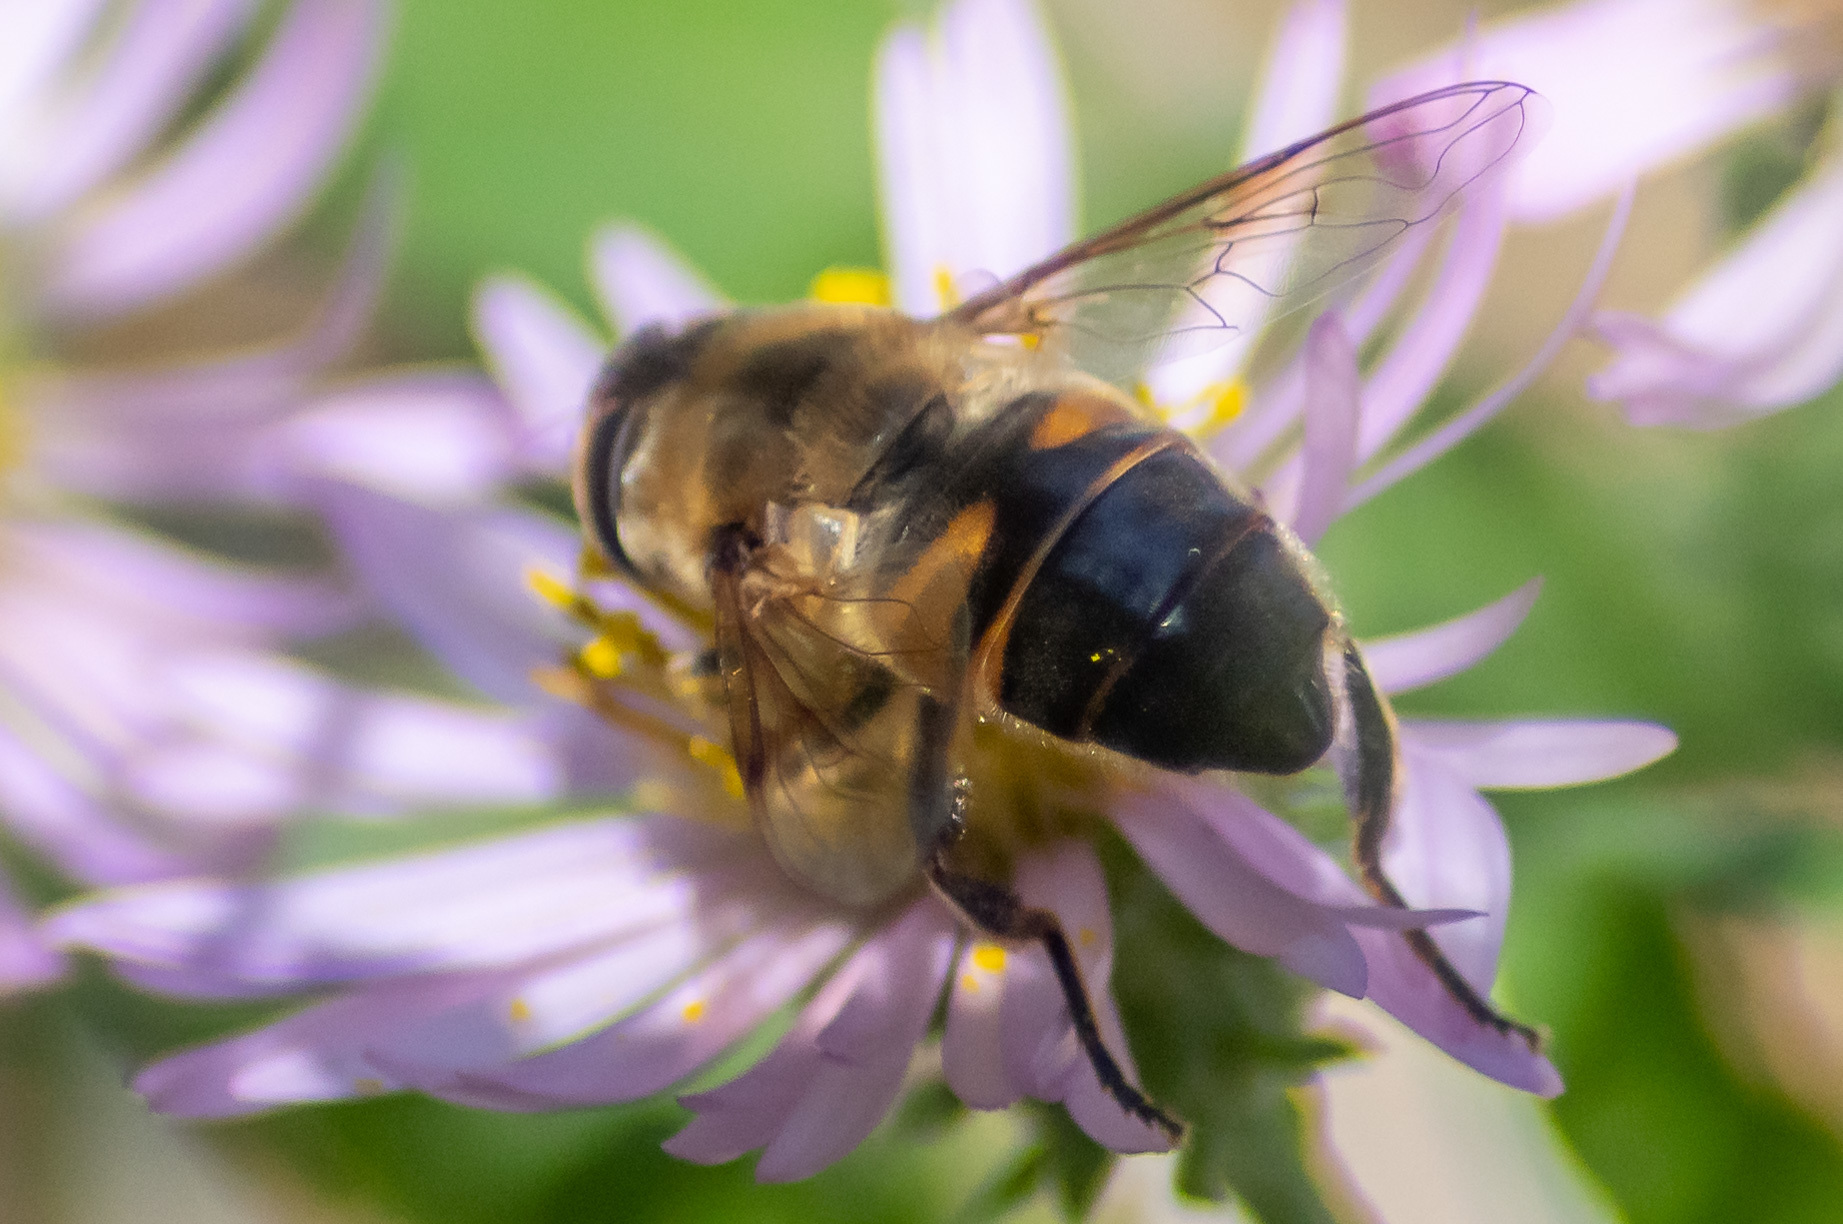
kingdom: Animalia
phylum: Arthropoda
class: Insecta
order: Diptera
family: Syrphidae
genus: Eristalis
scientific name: Eristalis tenax
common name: Drone fly
